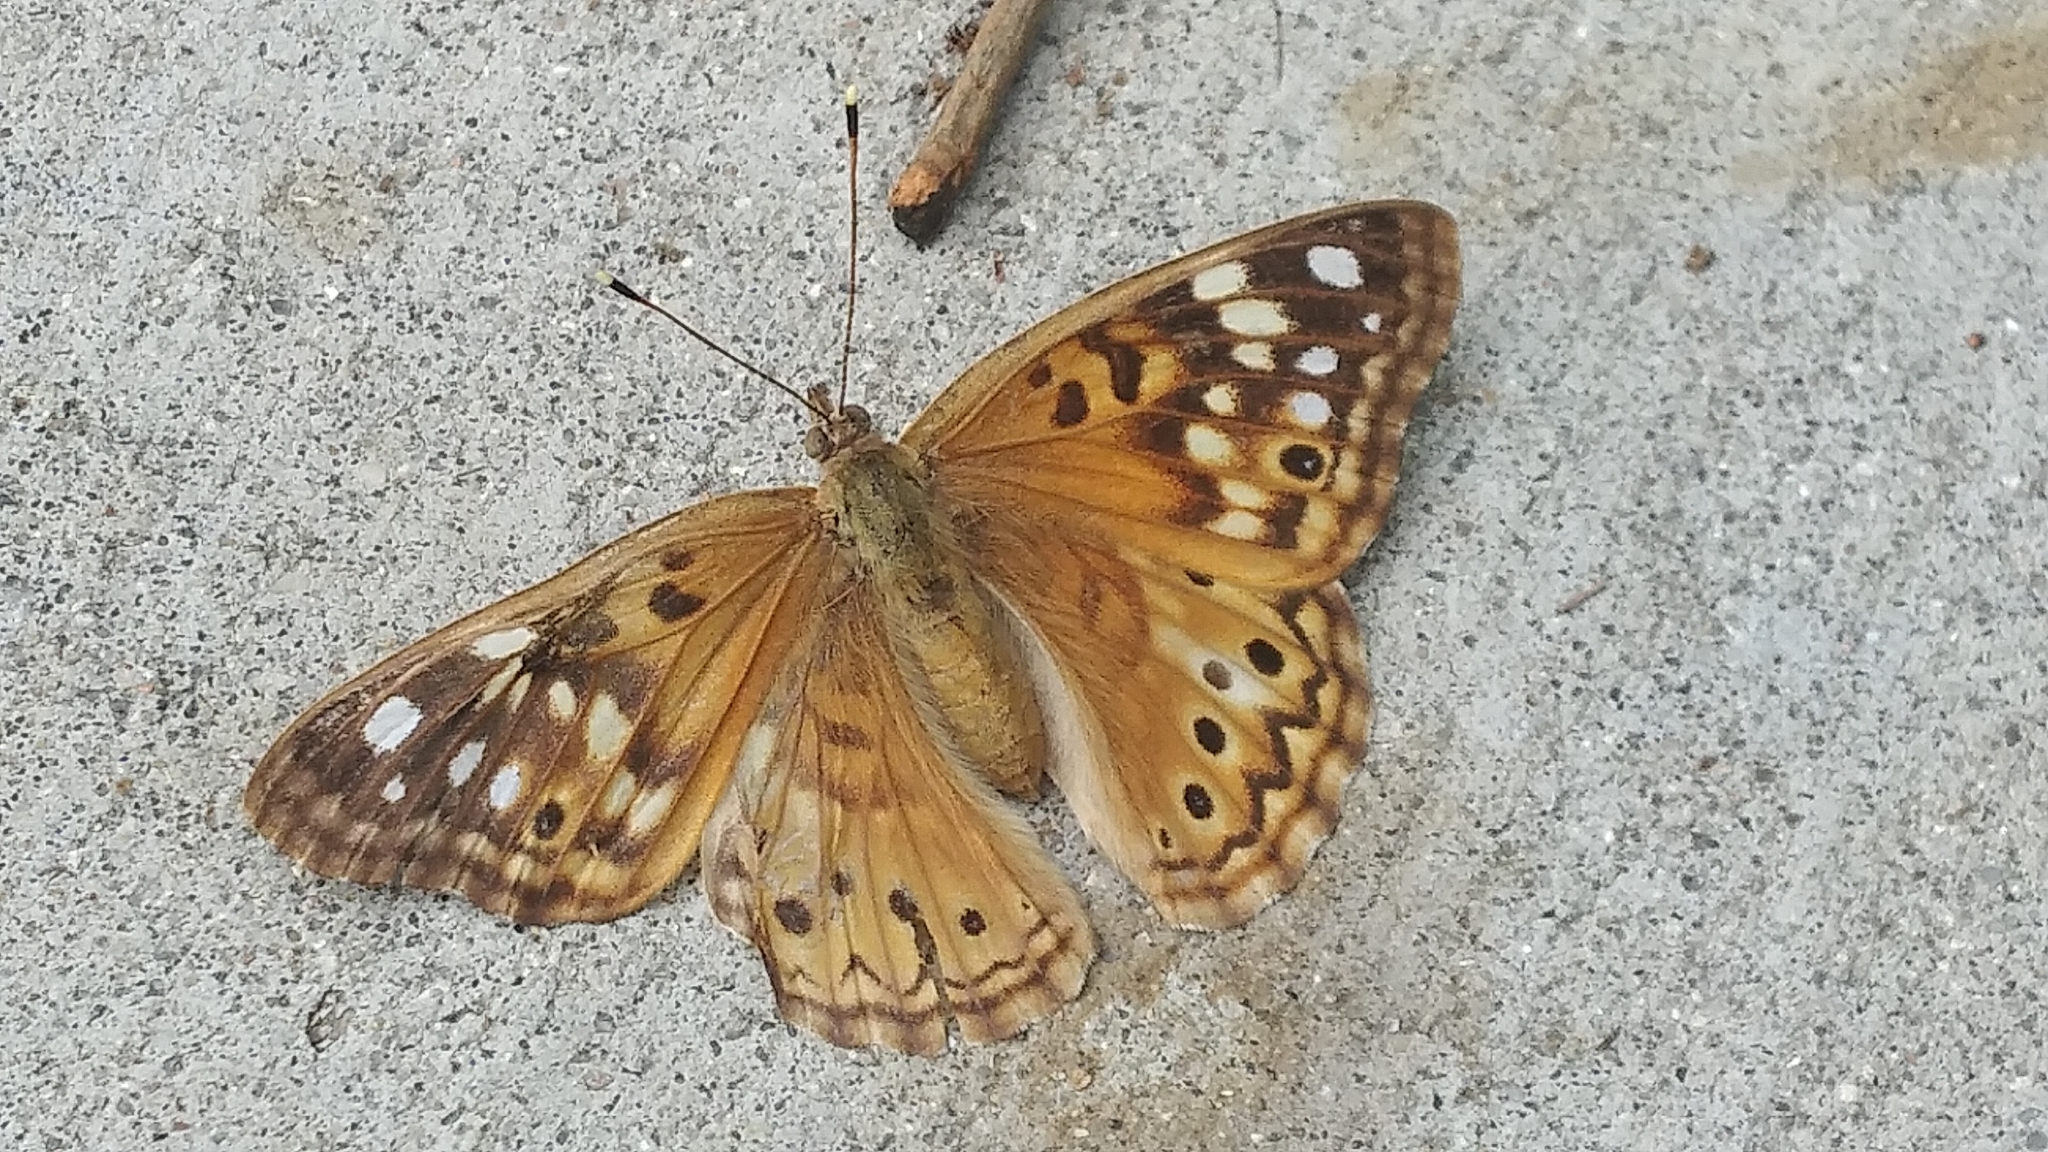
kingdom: Animalia
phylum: Arthropoda
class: Insecta
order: Lepidoptera
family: Nymphalidae
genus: Asterocampa
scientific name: Asterocampa celtis
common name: Hackberry emperor
